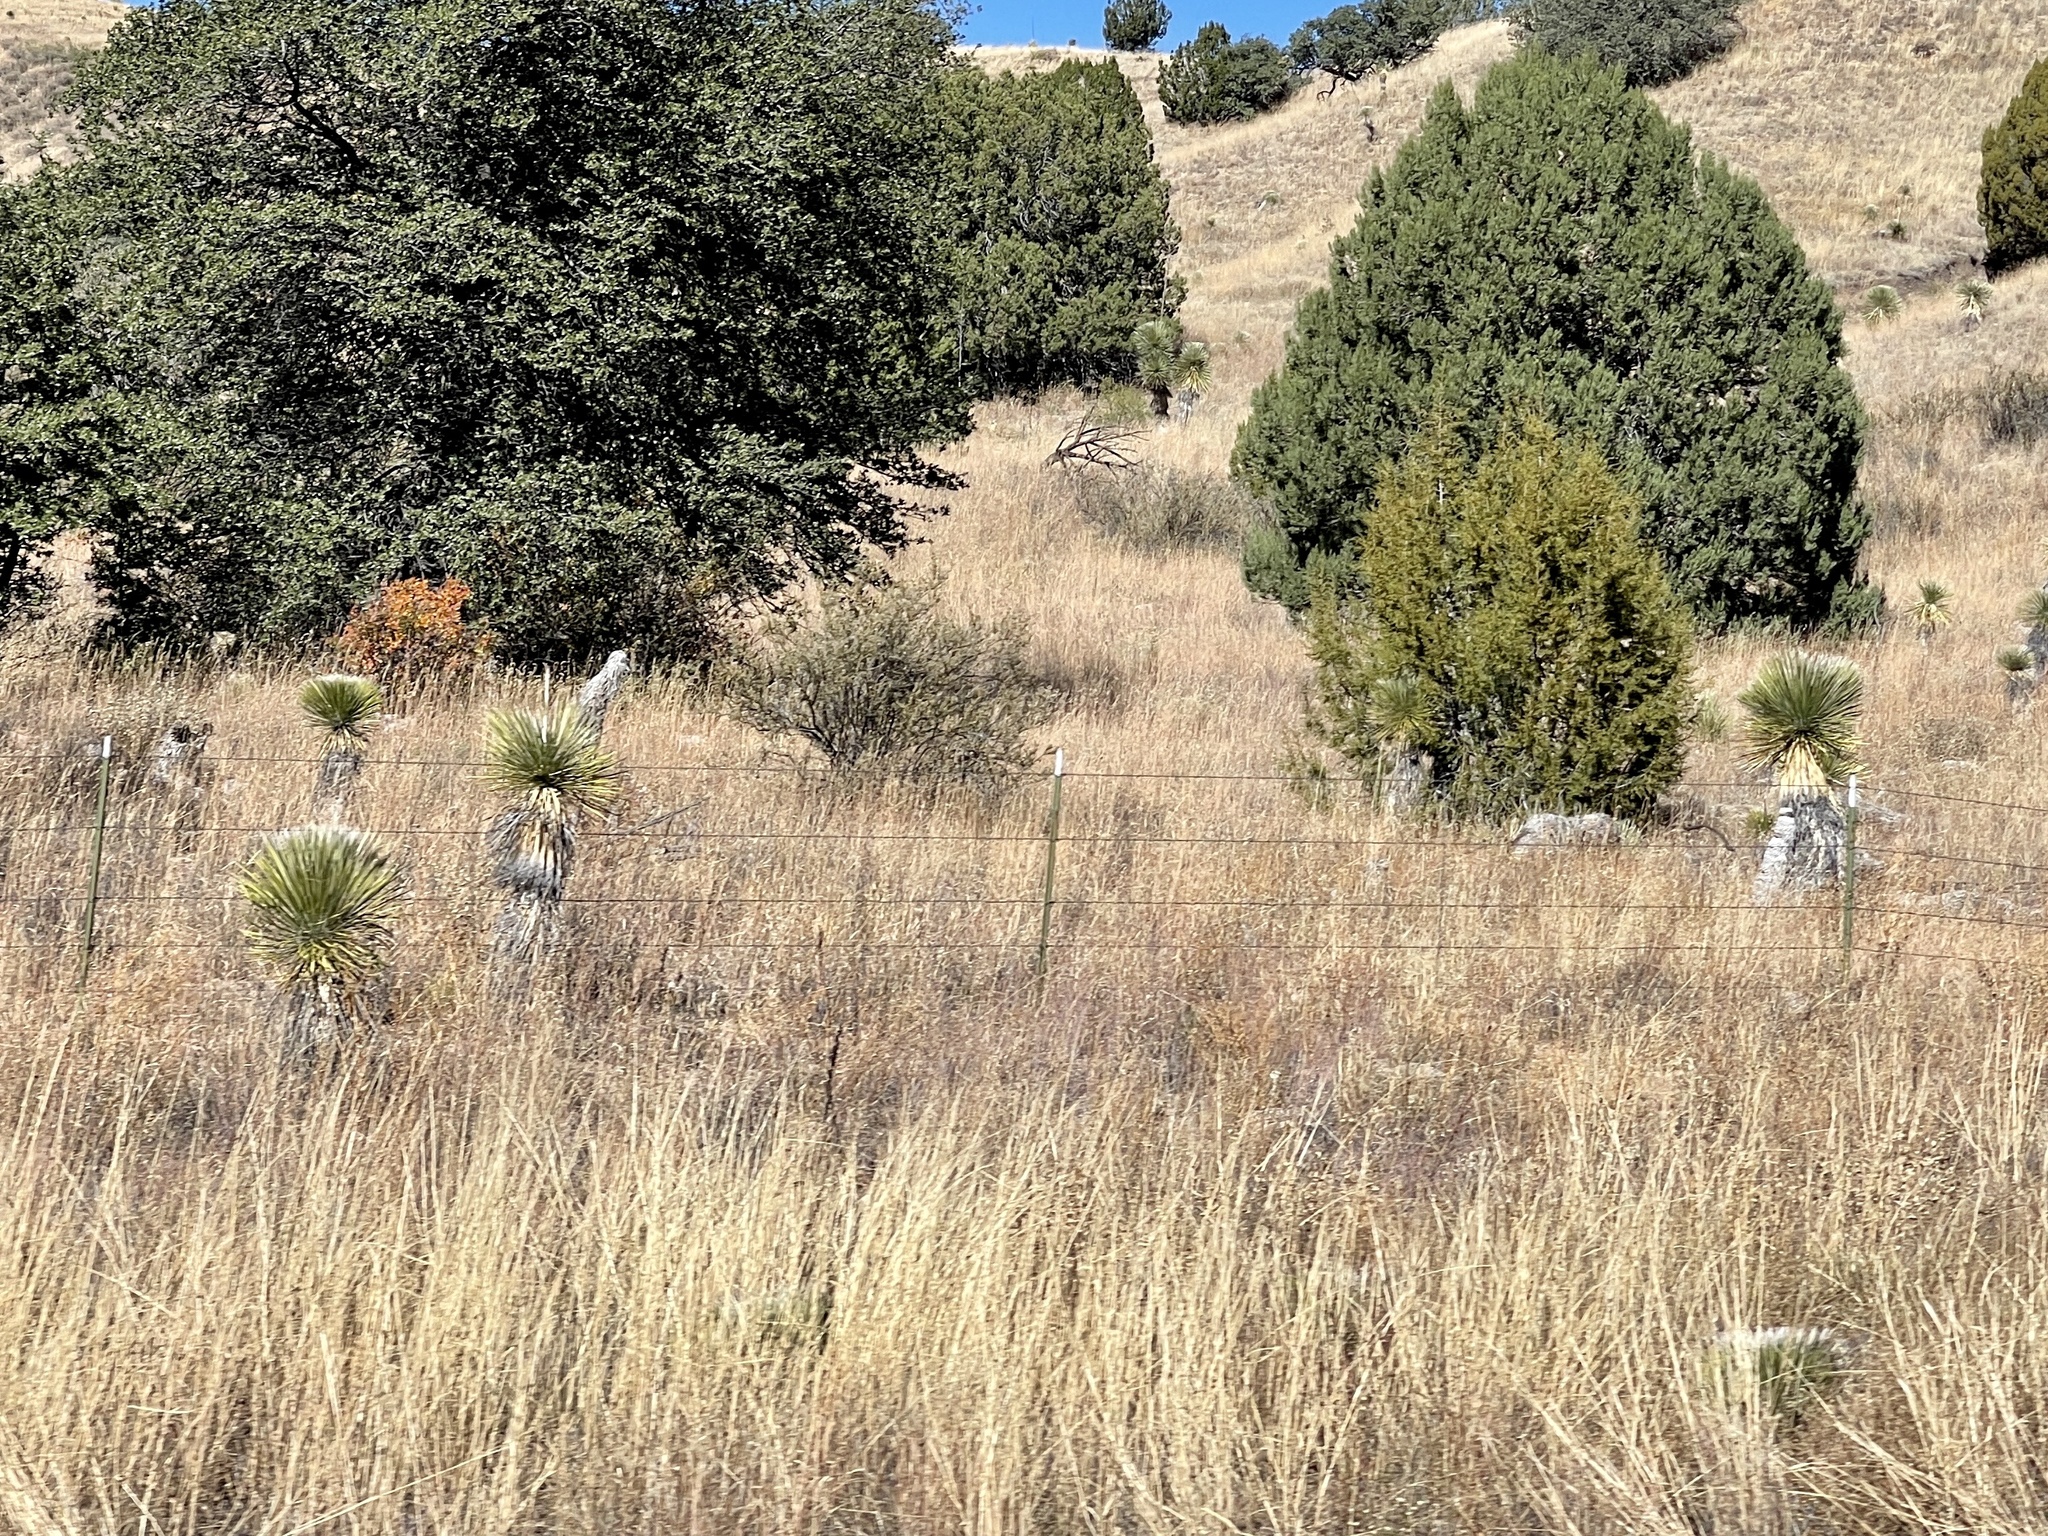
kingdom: Plantae
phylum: Tracheophyta
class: Liliopsida
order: Asparagales
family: Asparagaceae
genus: Yucca
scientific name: Yucca elata
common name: Palmella
